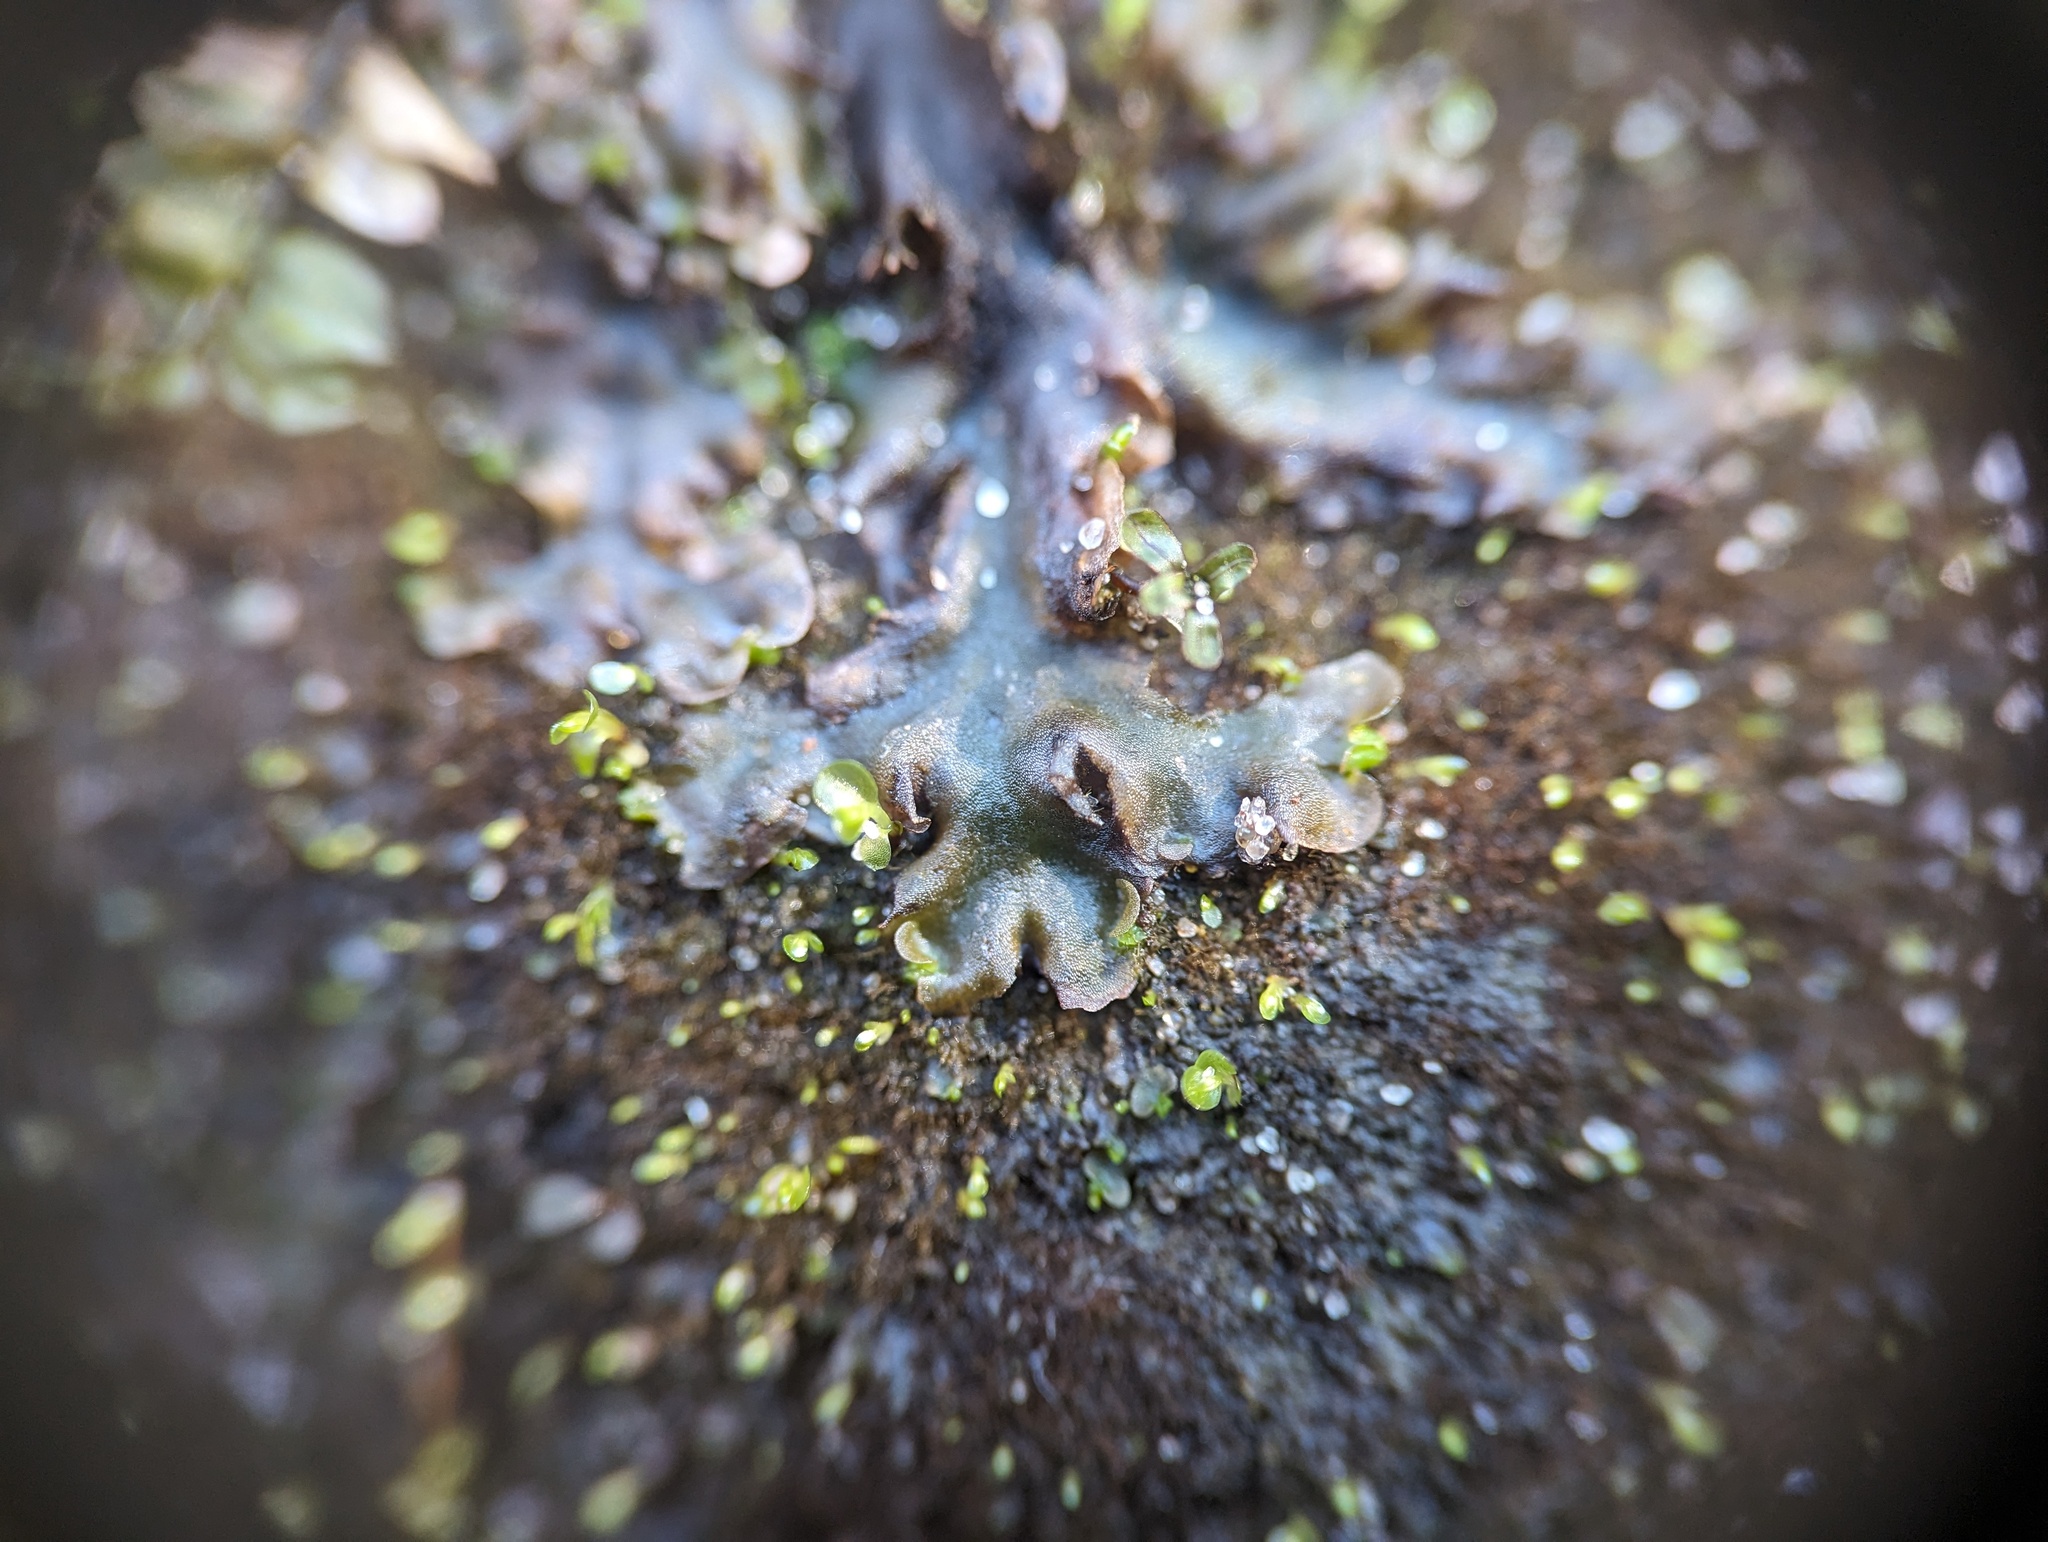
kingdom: Plantae
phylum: Marchantiophyta
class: Jungermanniopsida
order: Pelliales
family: Pelliaceae
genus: Pellia
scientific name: Pellia epiphylla
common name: Common pellia
